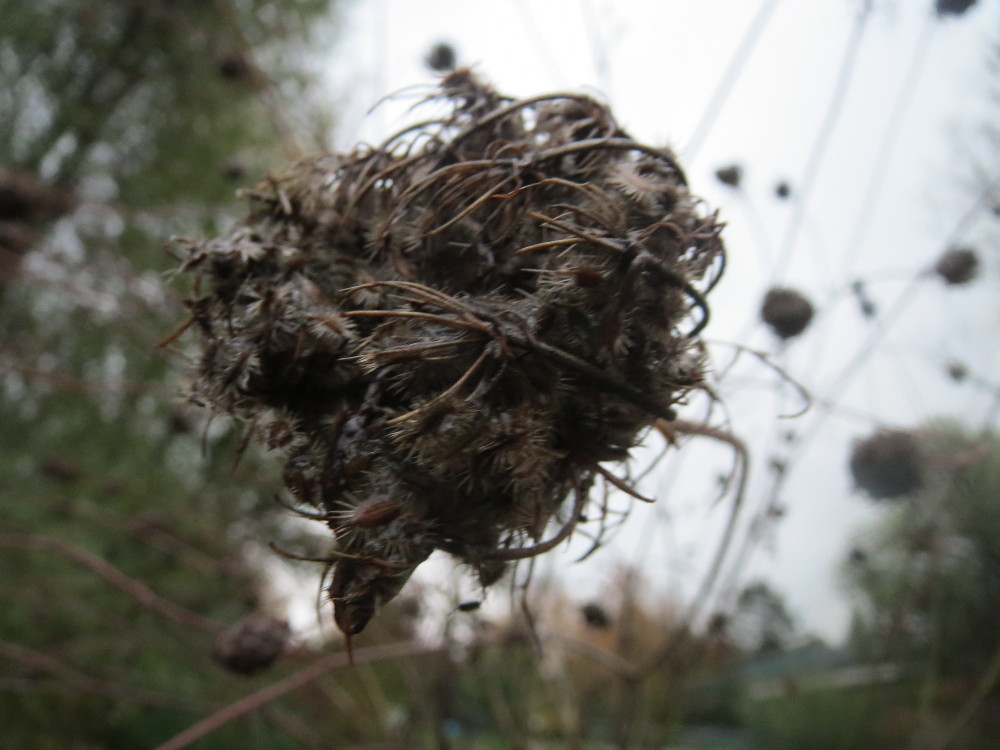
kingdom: Plantae
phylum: Tracheophyta
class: Magnoliopsida
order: Apiales
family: Apiaceae
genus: Daucus
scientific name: Daucus carota
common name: Wild carrot
